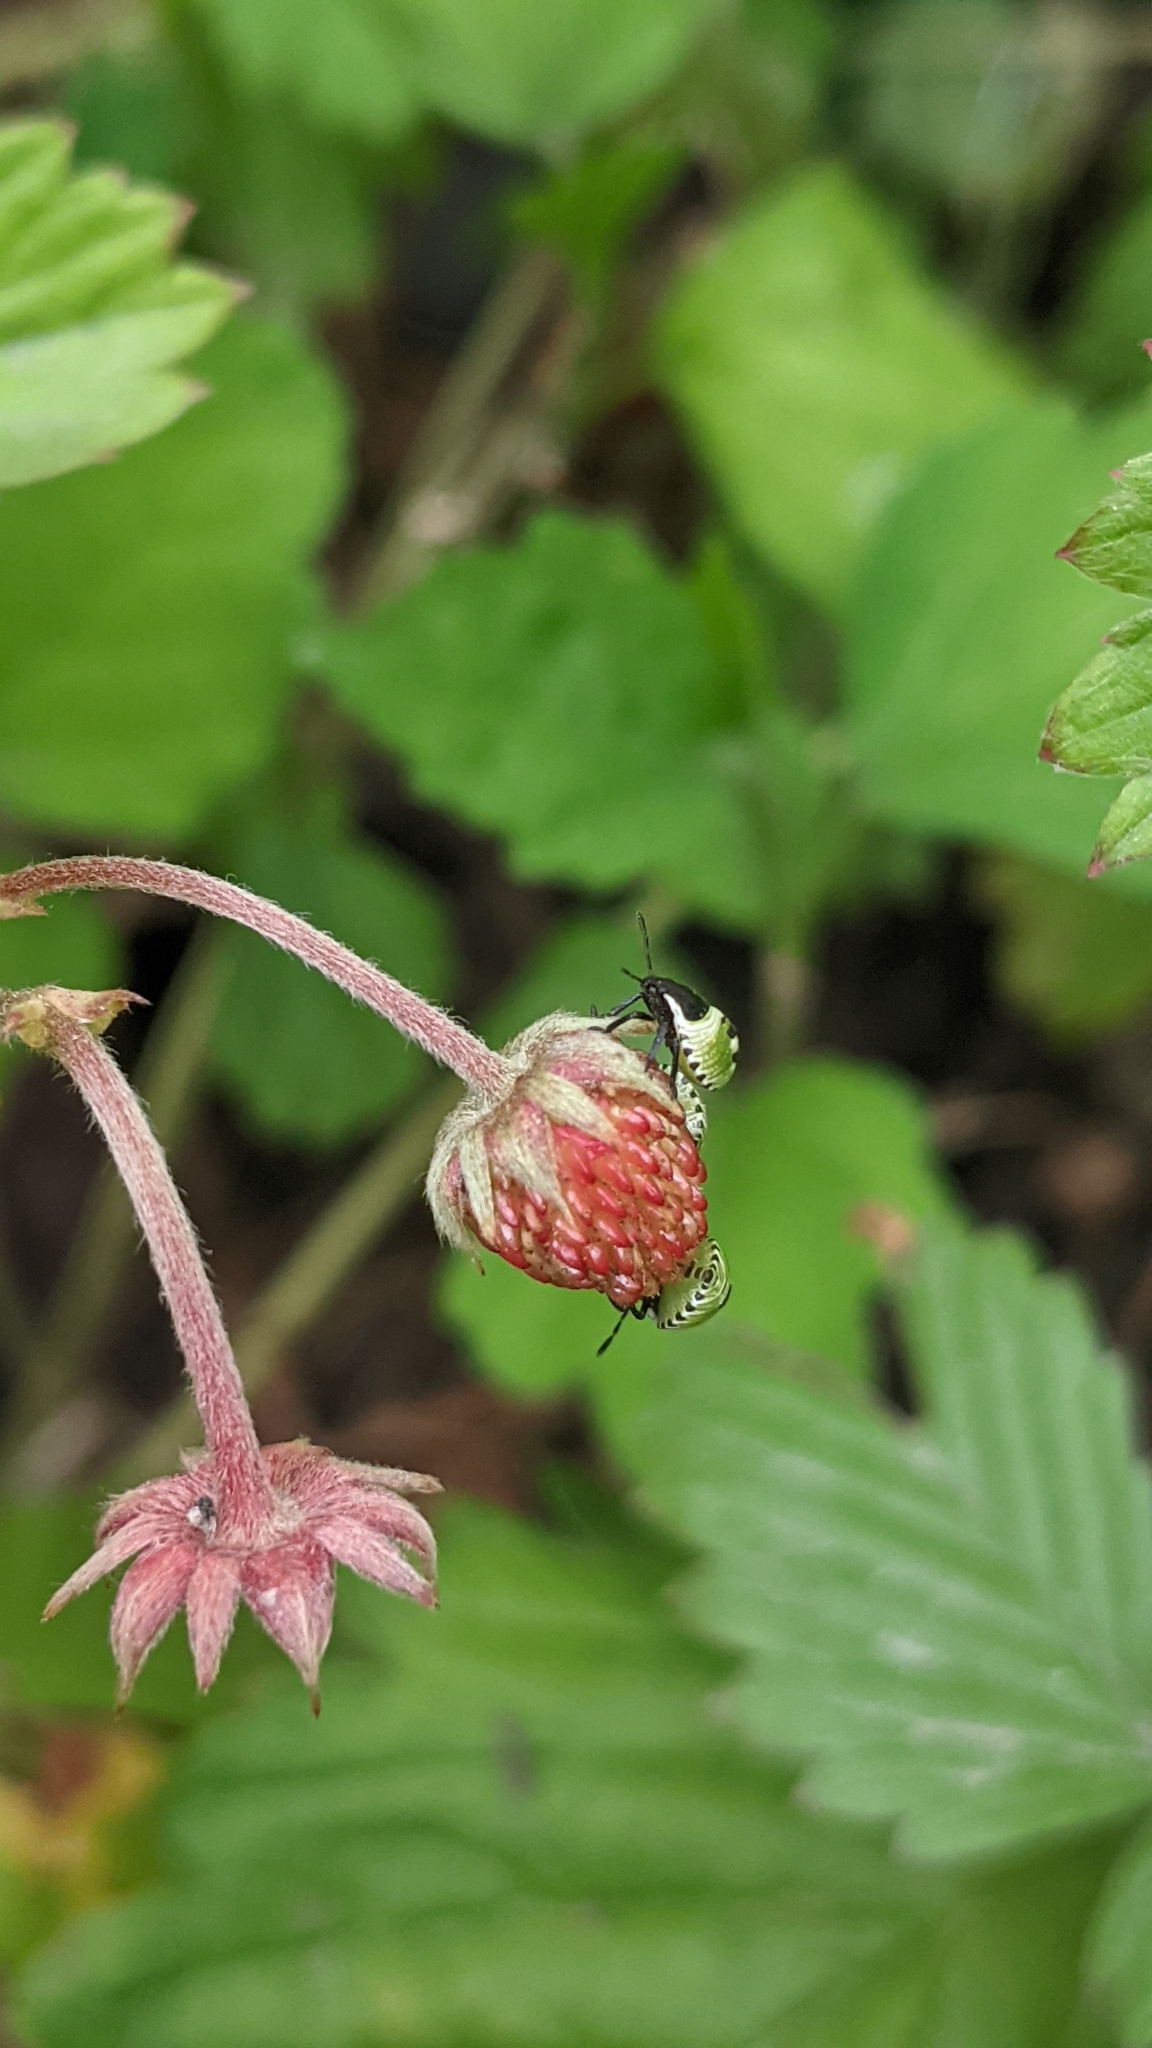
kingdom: Animalia
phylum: Arthropoda
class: Insecta
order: Hemiptera
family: Pentatomidae
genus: Palomena
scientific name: Palomena prasina
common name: Green shieldbug
